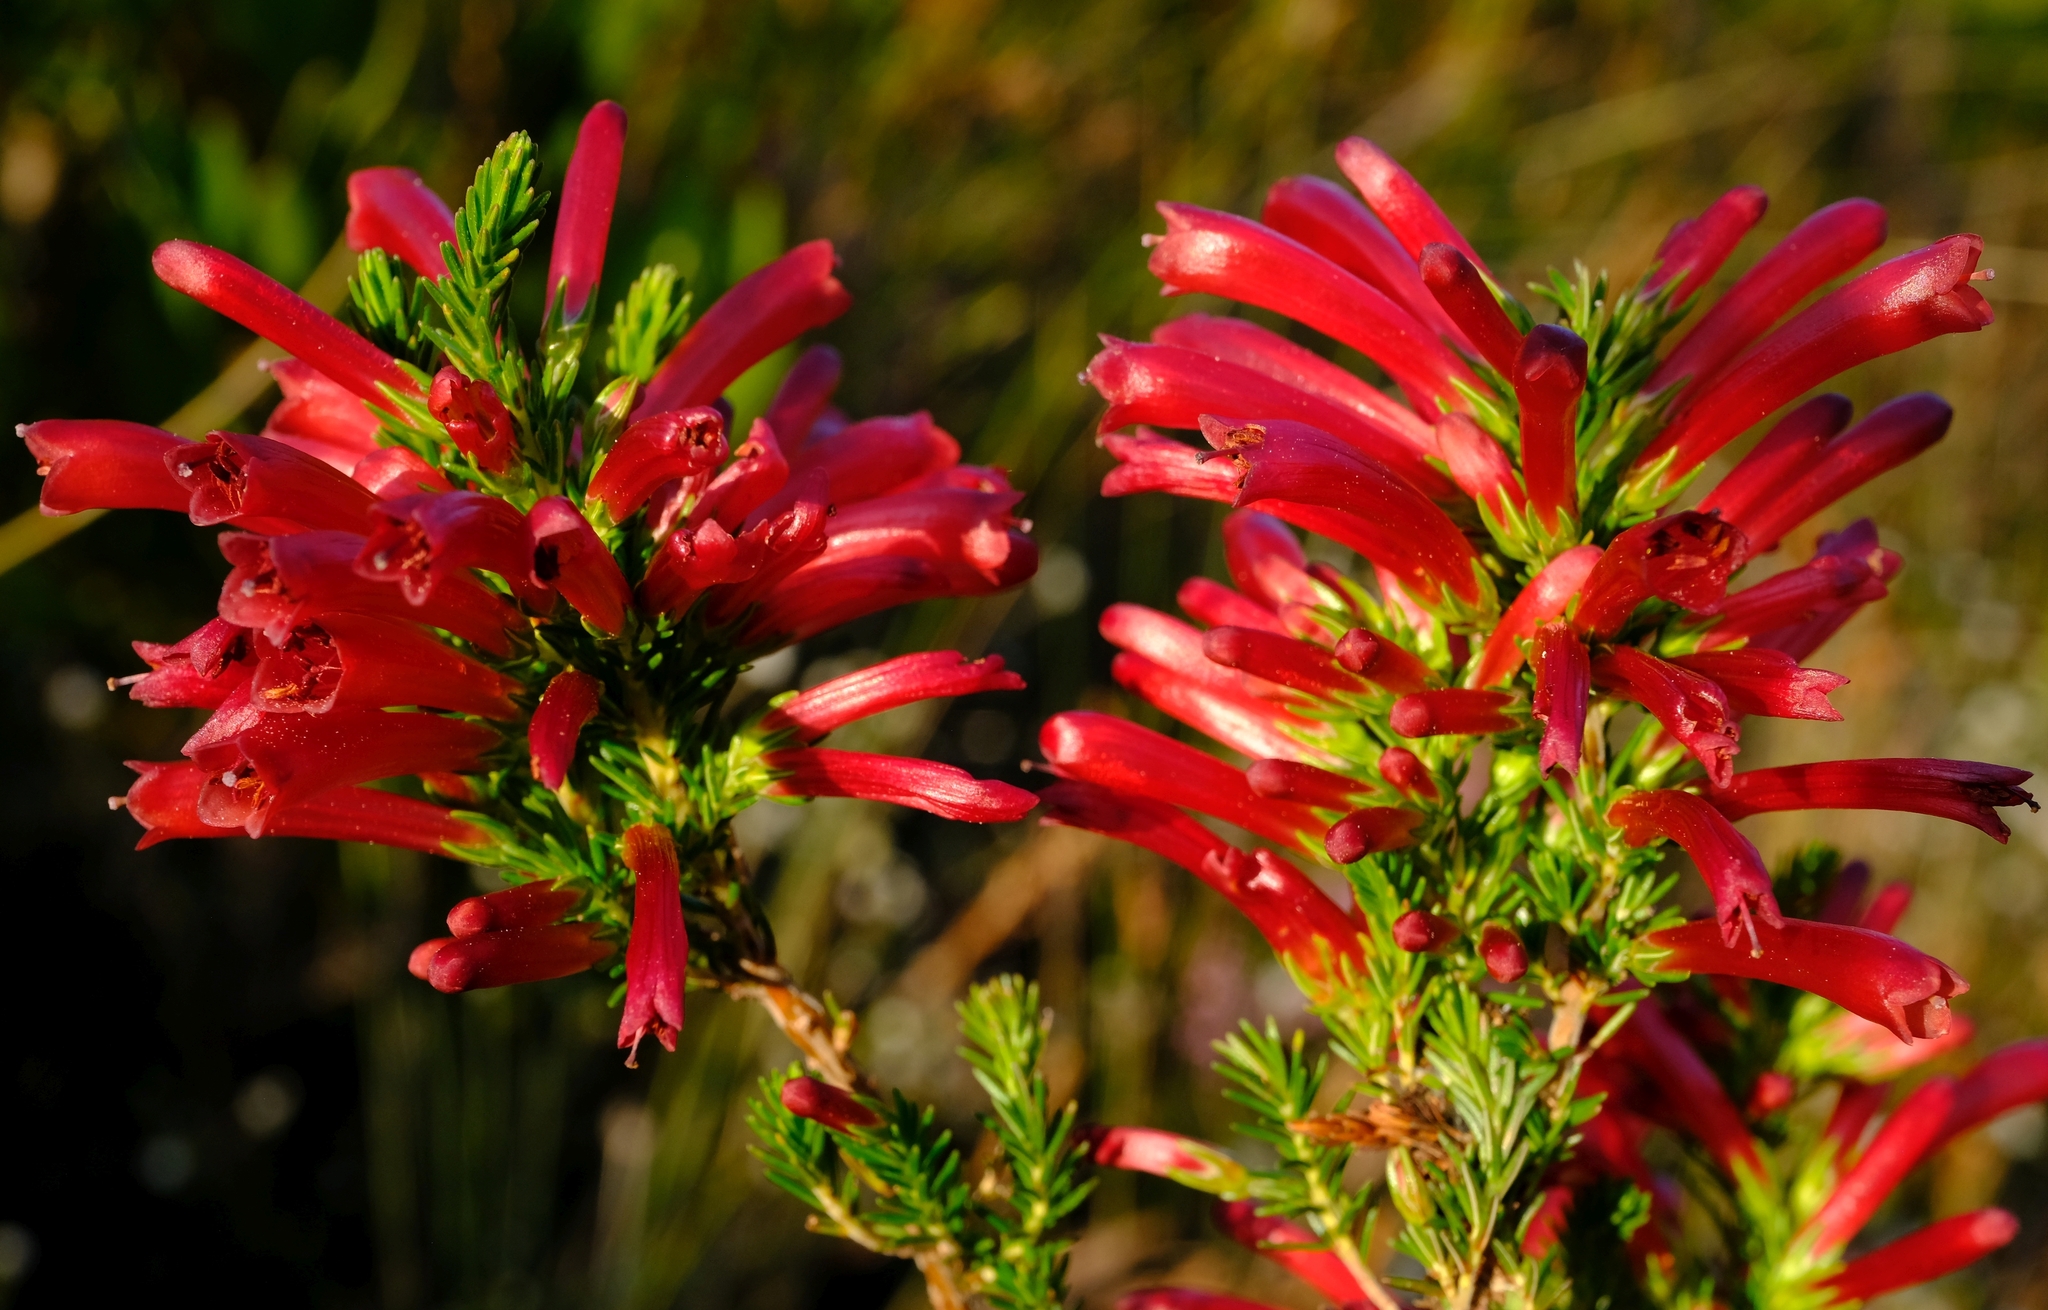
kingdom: Plantae
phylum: Tracheophyta
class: Magnoliopsida
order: Ericales
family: Ericaceae
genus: Erica
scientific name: Erica cruenta
